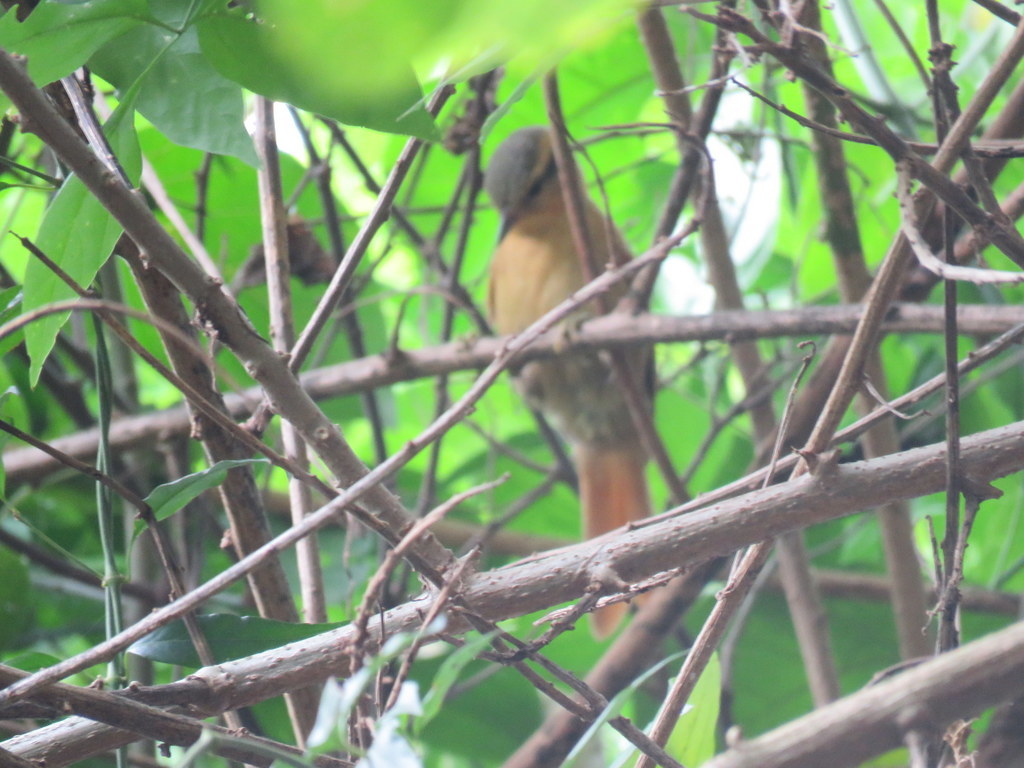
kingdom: Animalia
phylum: Chordata
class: Aves
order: Passeriformes
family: Furnariidae
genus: Philydor
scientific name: Philydor lichtensteini
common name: Ochre-breasted foliage-gleaner
